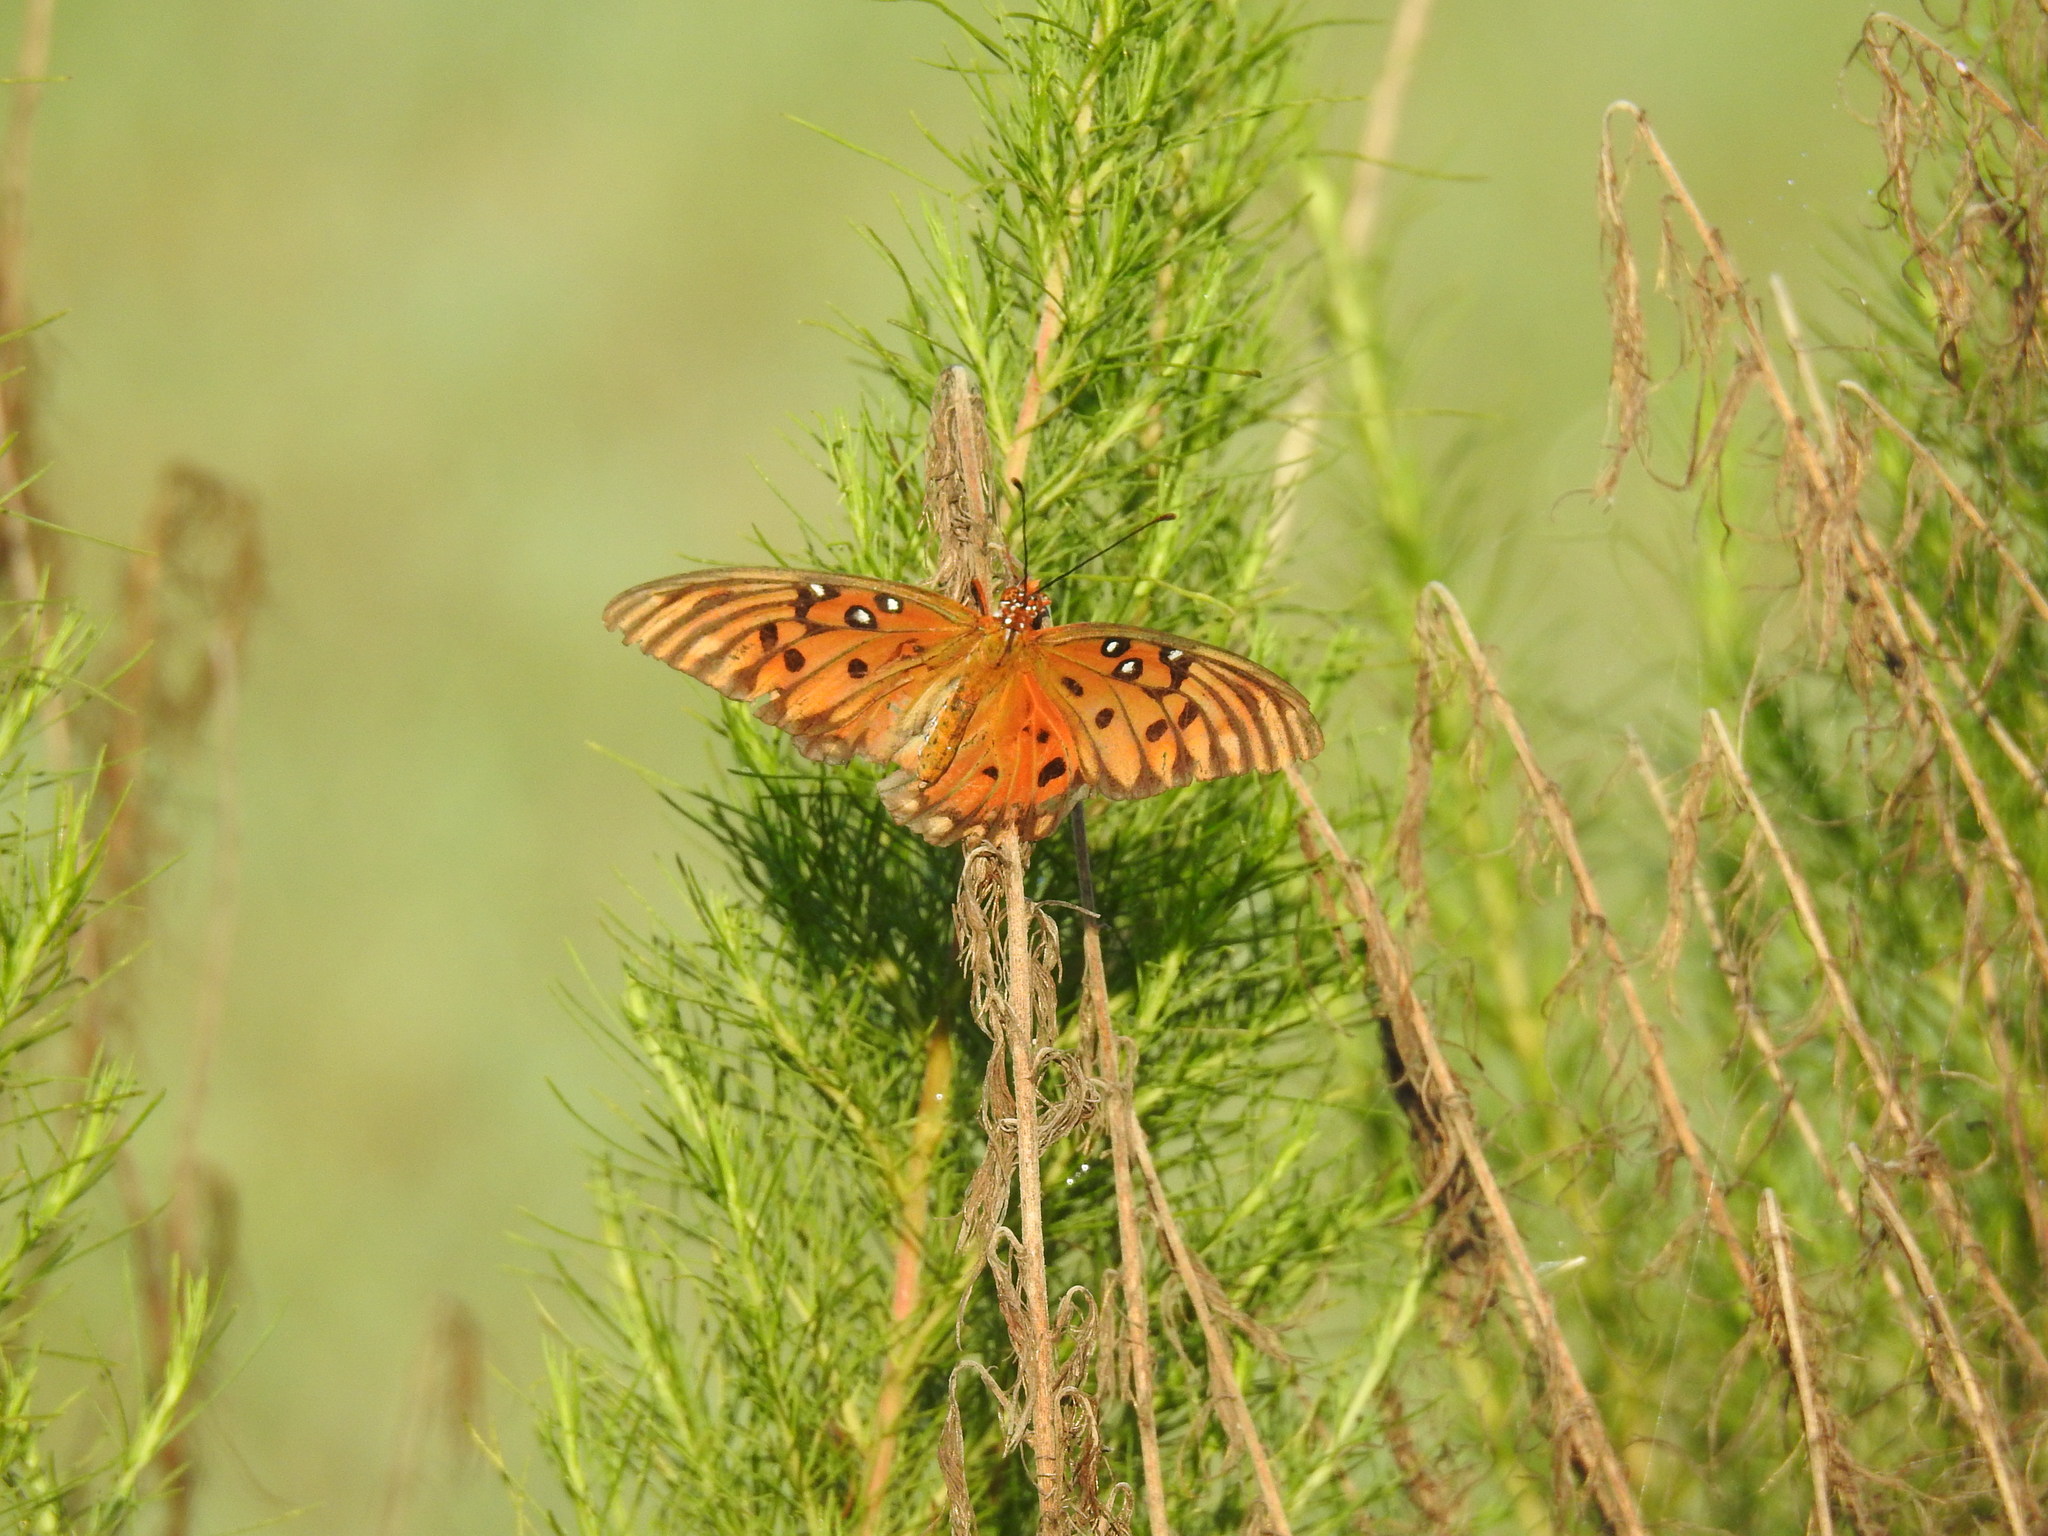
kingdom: Animalia
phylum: Arthropoda
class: Insecta
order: Lepidoptera
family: Nymphalidae
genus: Dione
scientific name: Dione vanillae
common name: Gulf fritillary
